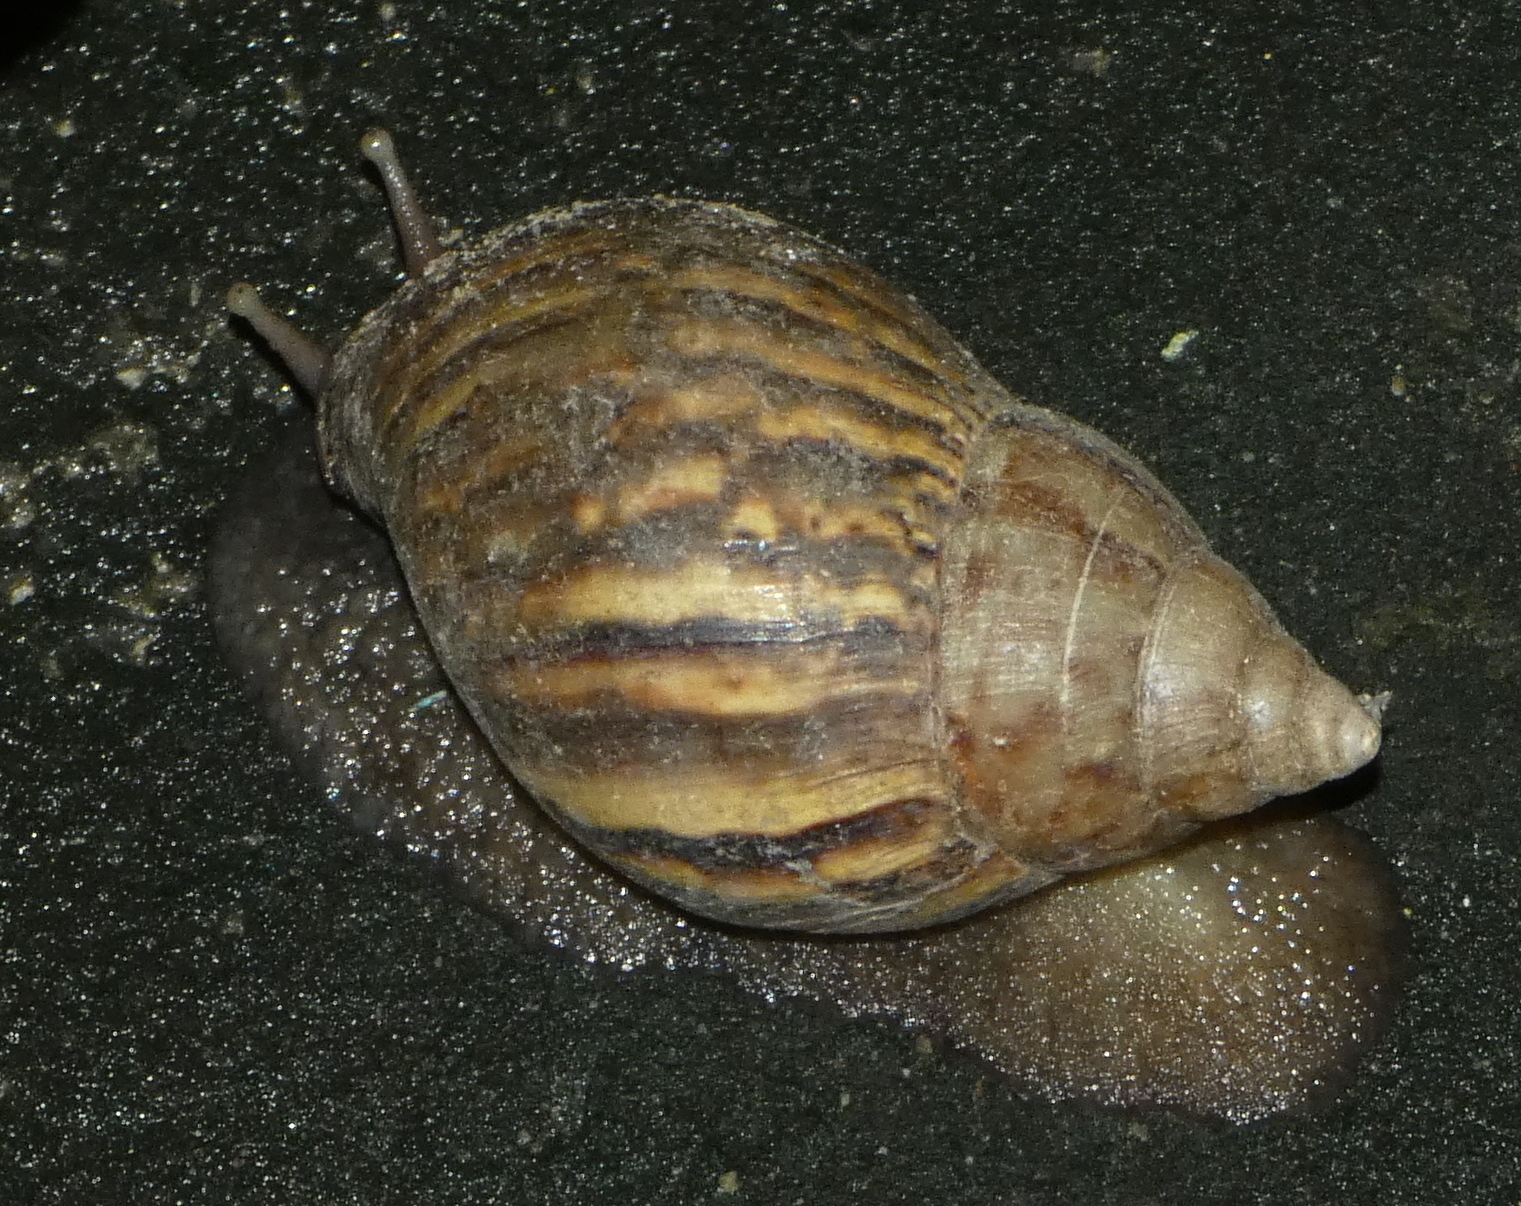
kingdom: Animalia
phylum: Mollusca
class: Gastropoda
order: Stylommatophora
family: Achatinidae
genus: Lissachatina
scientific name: Lissachatina fulica
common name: Giant african snail
